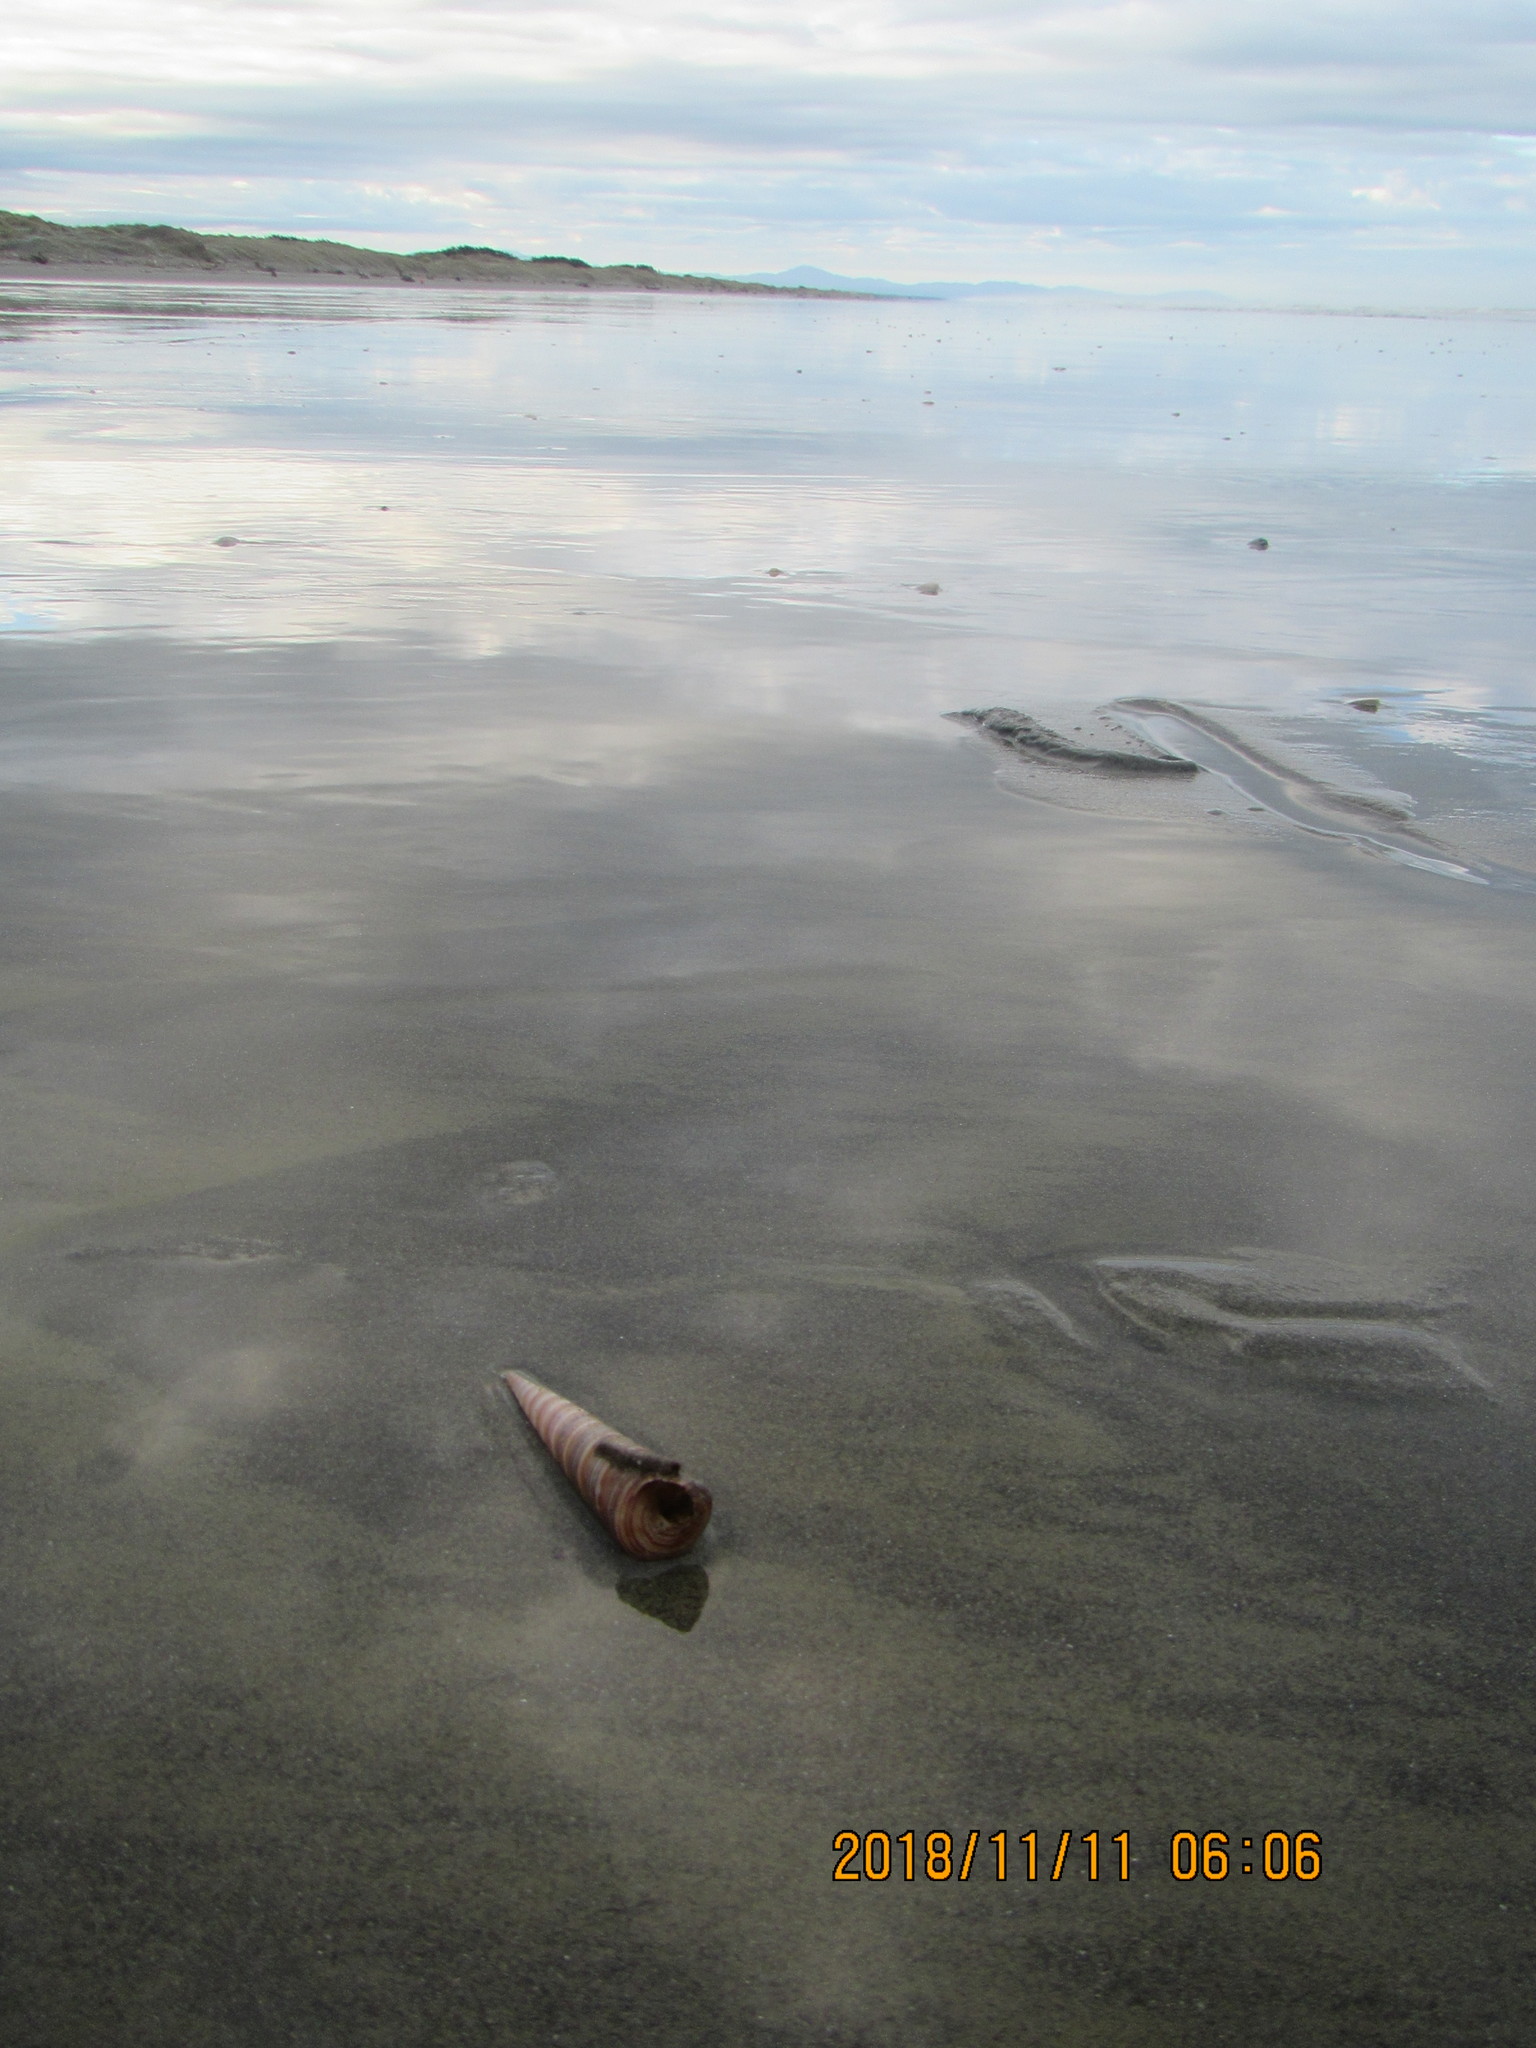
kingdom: Animalia
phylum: Mollusca
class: Gastropoda
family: Turritellidae
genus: Zeacolpus
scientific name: Zeacolpus vittatus
